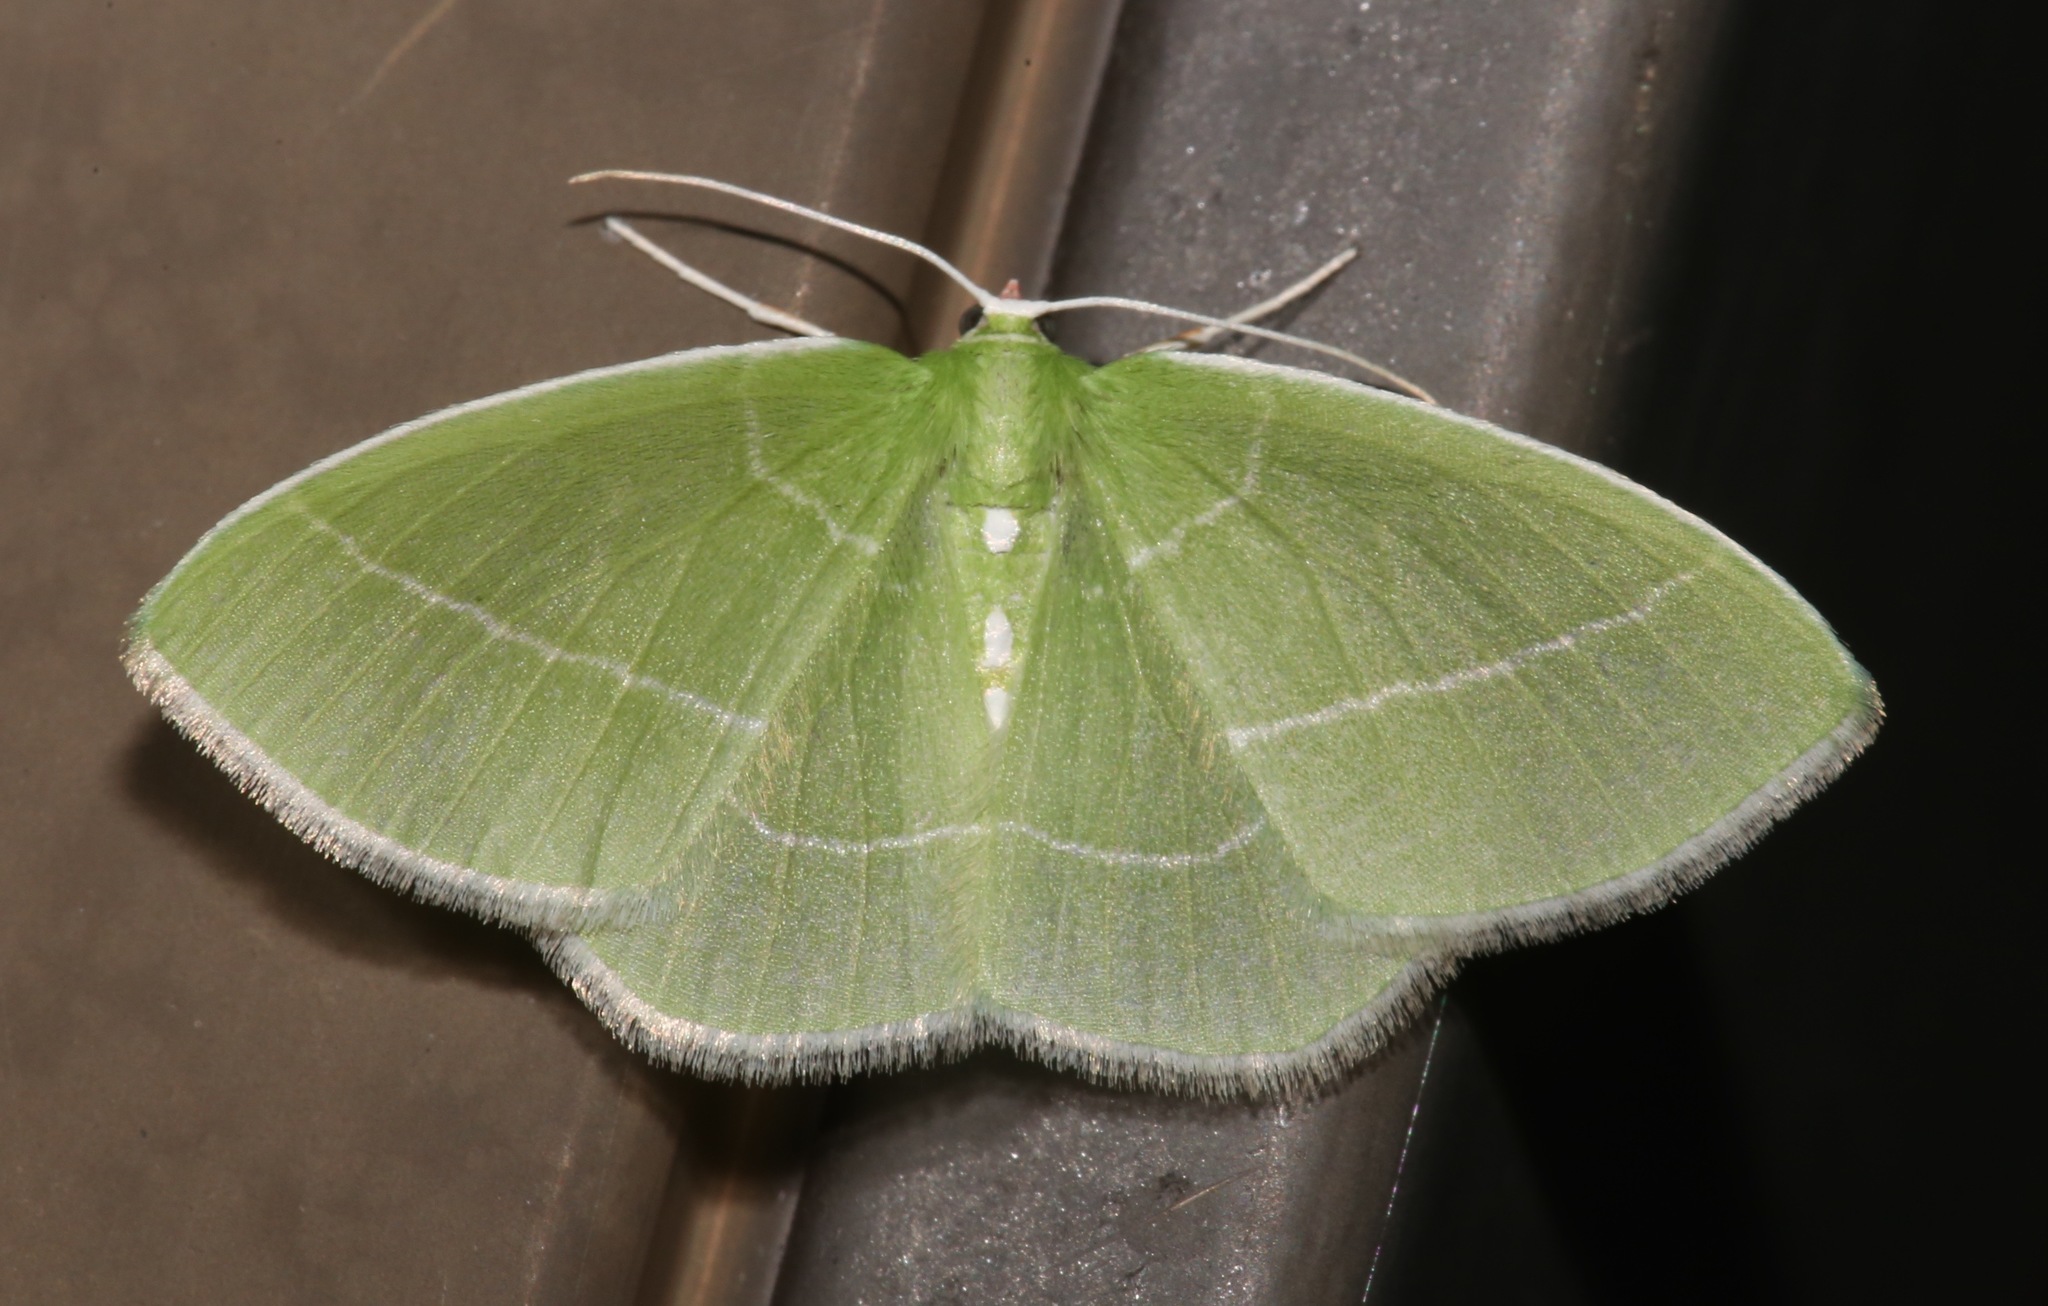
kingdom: Animalia
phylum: Arthropoda
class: Insecta
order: Lepidoptera
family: Geometridae
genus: Nemoria
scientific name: Nemoria mimosaria
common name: White-fringed emerald
